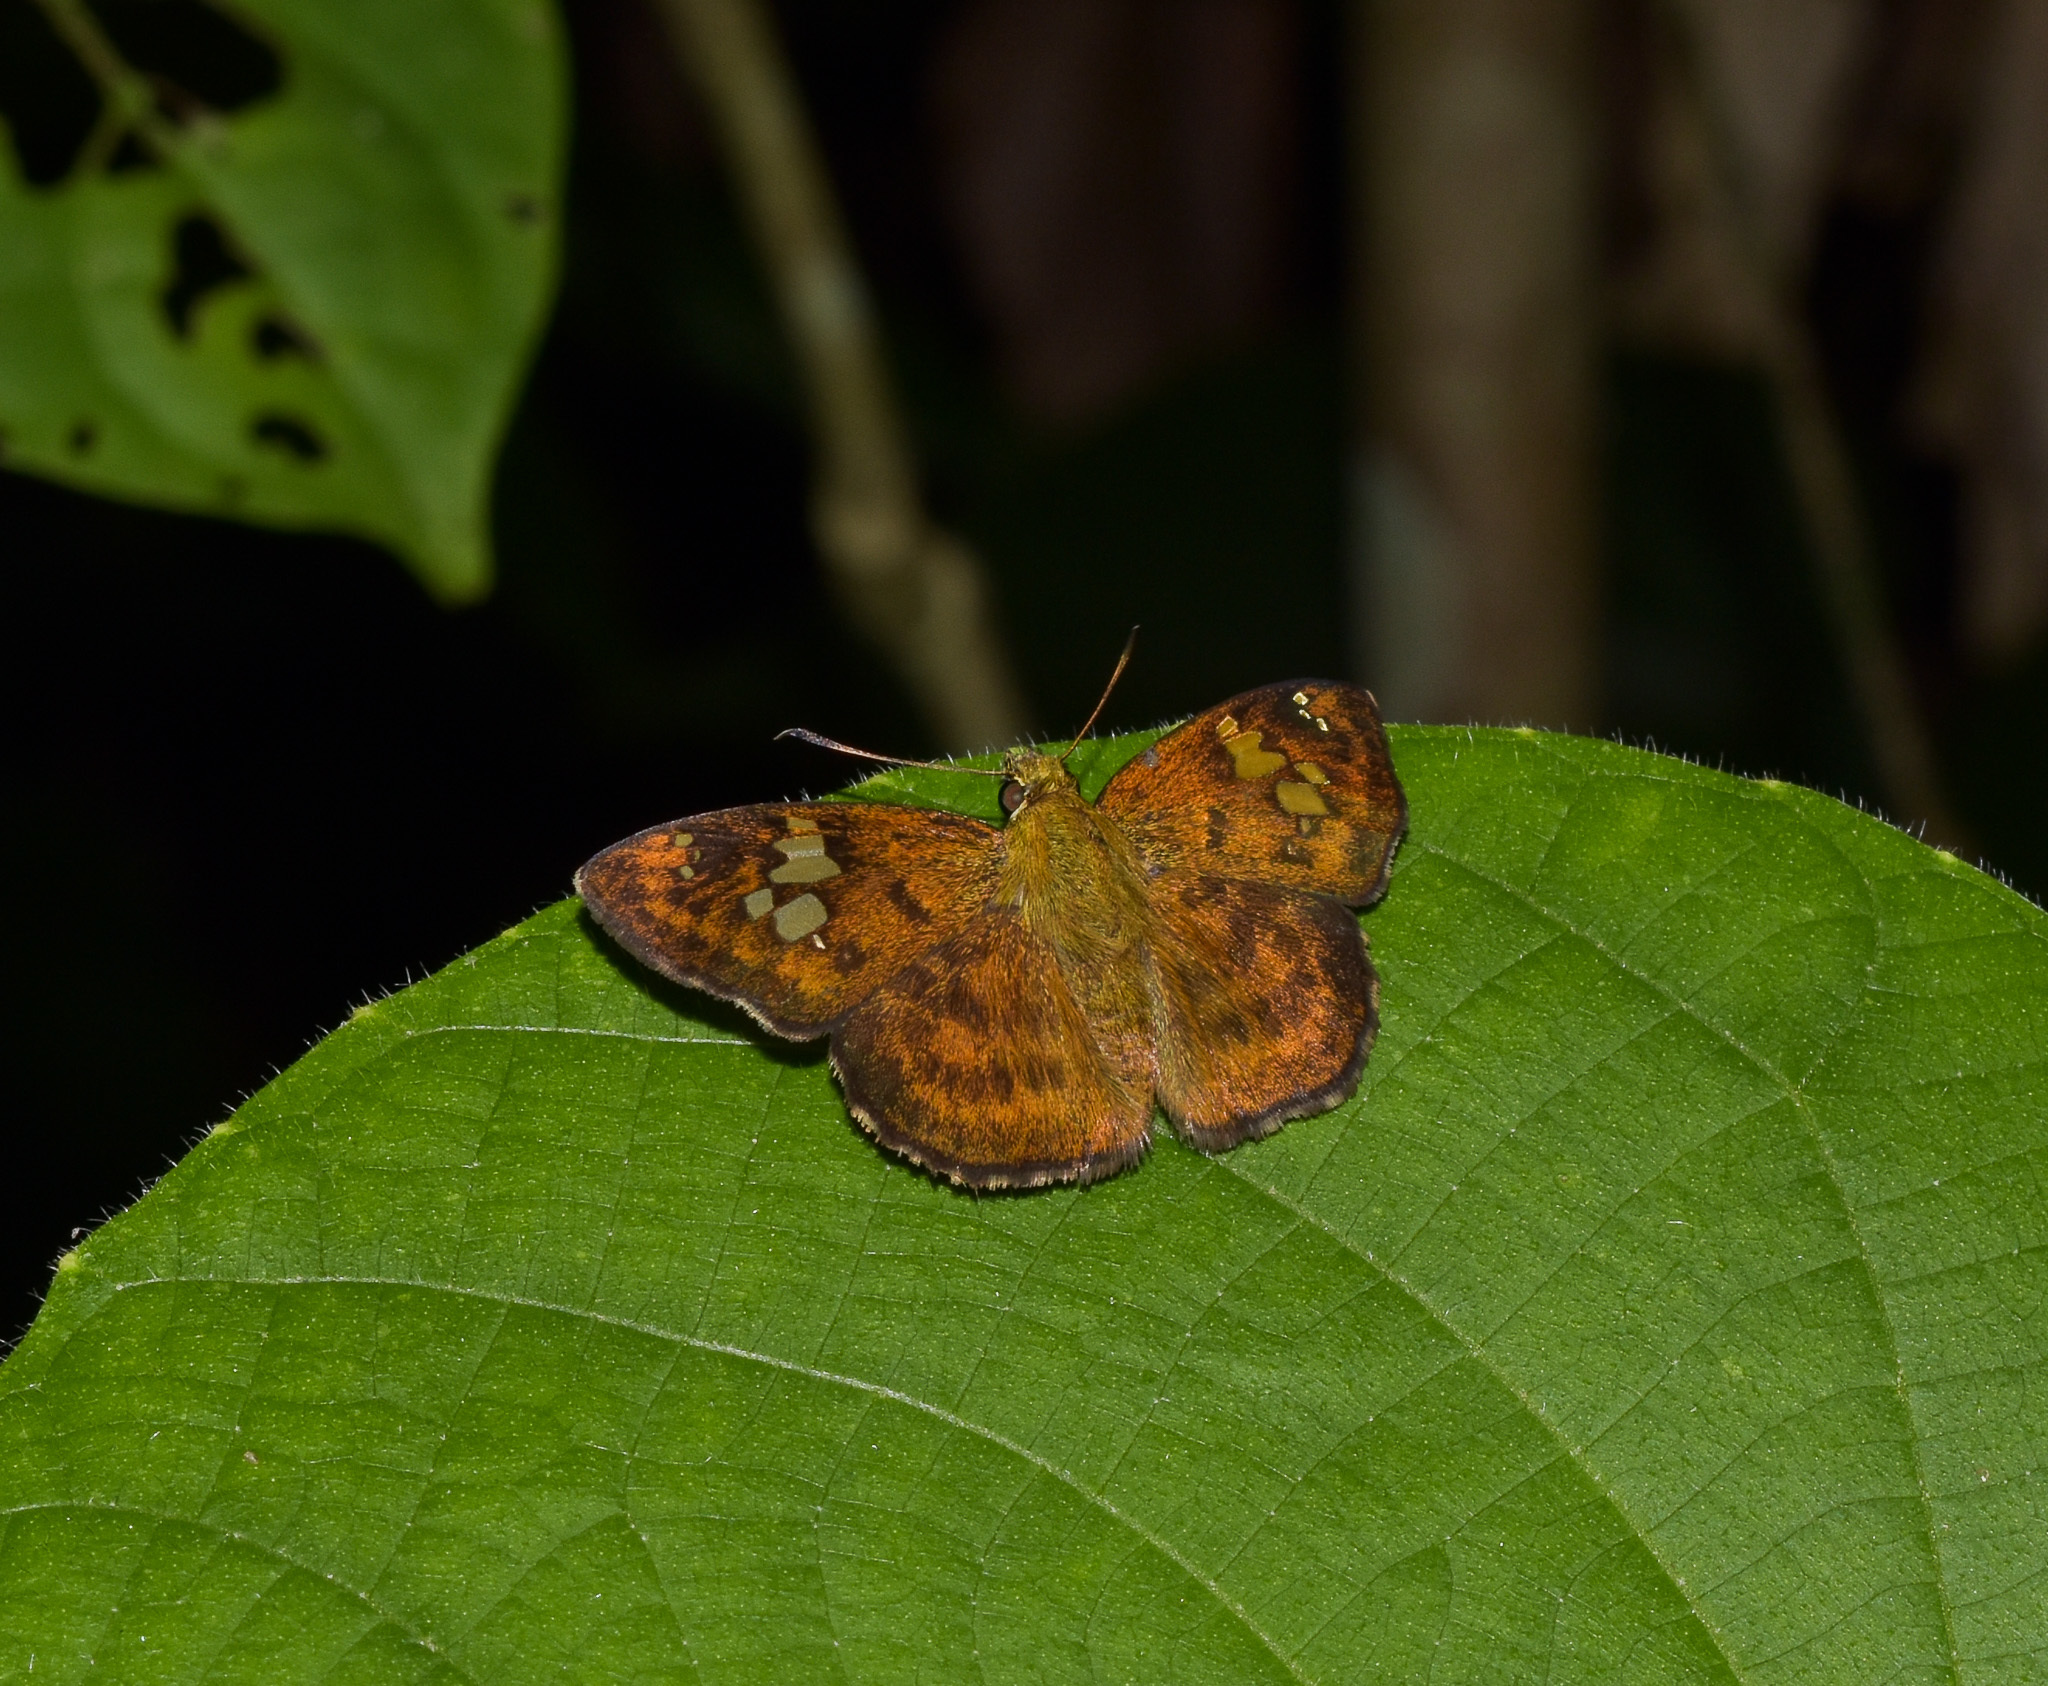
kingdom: Animalia
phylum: Arthropoda
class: Insecta
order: Lepidoptera
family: Hesperiidae
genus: Pseudocoladenia
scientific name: Pseudocoladenia dan
